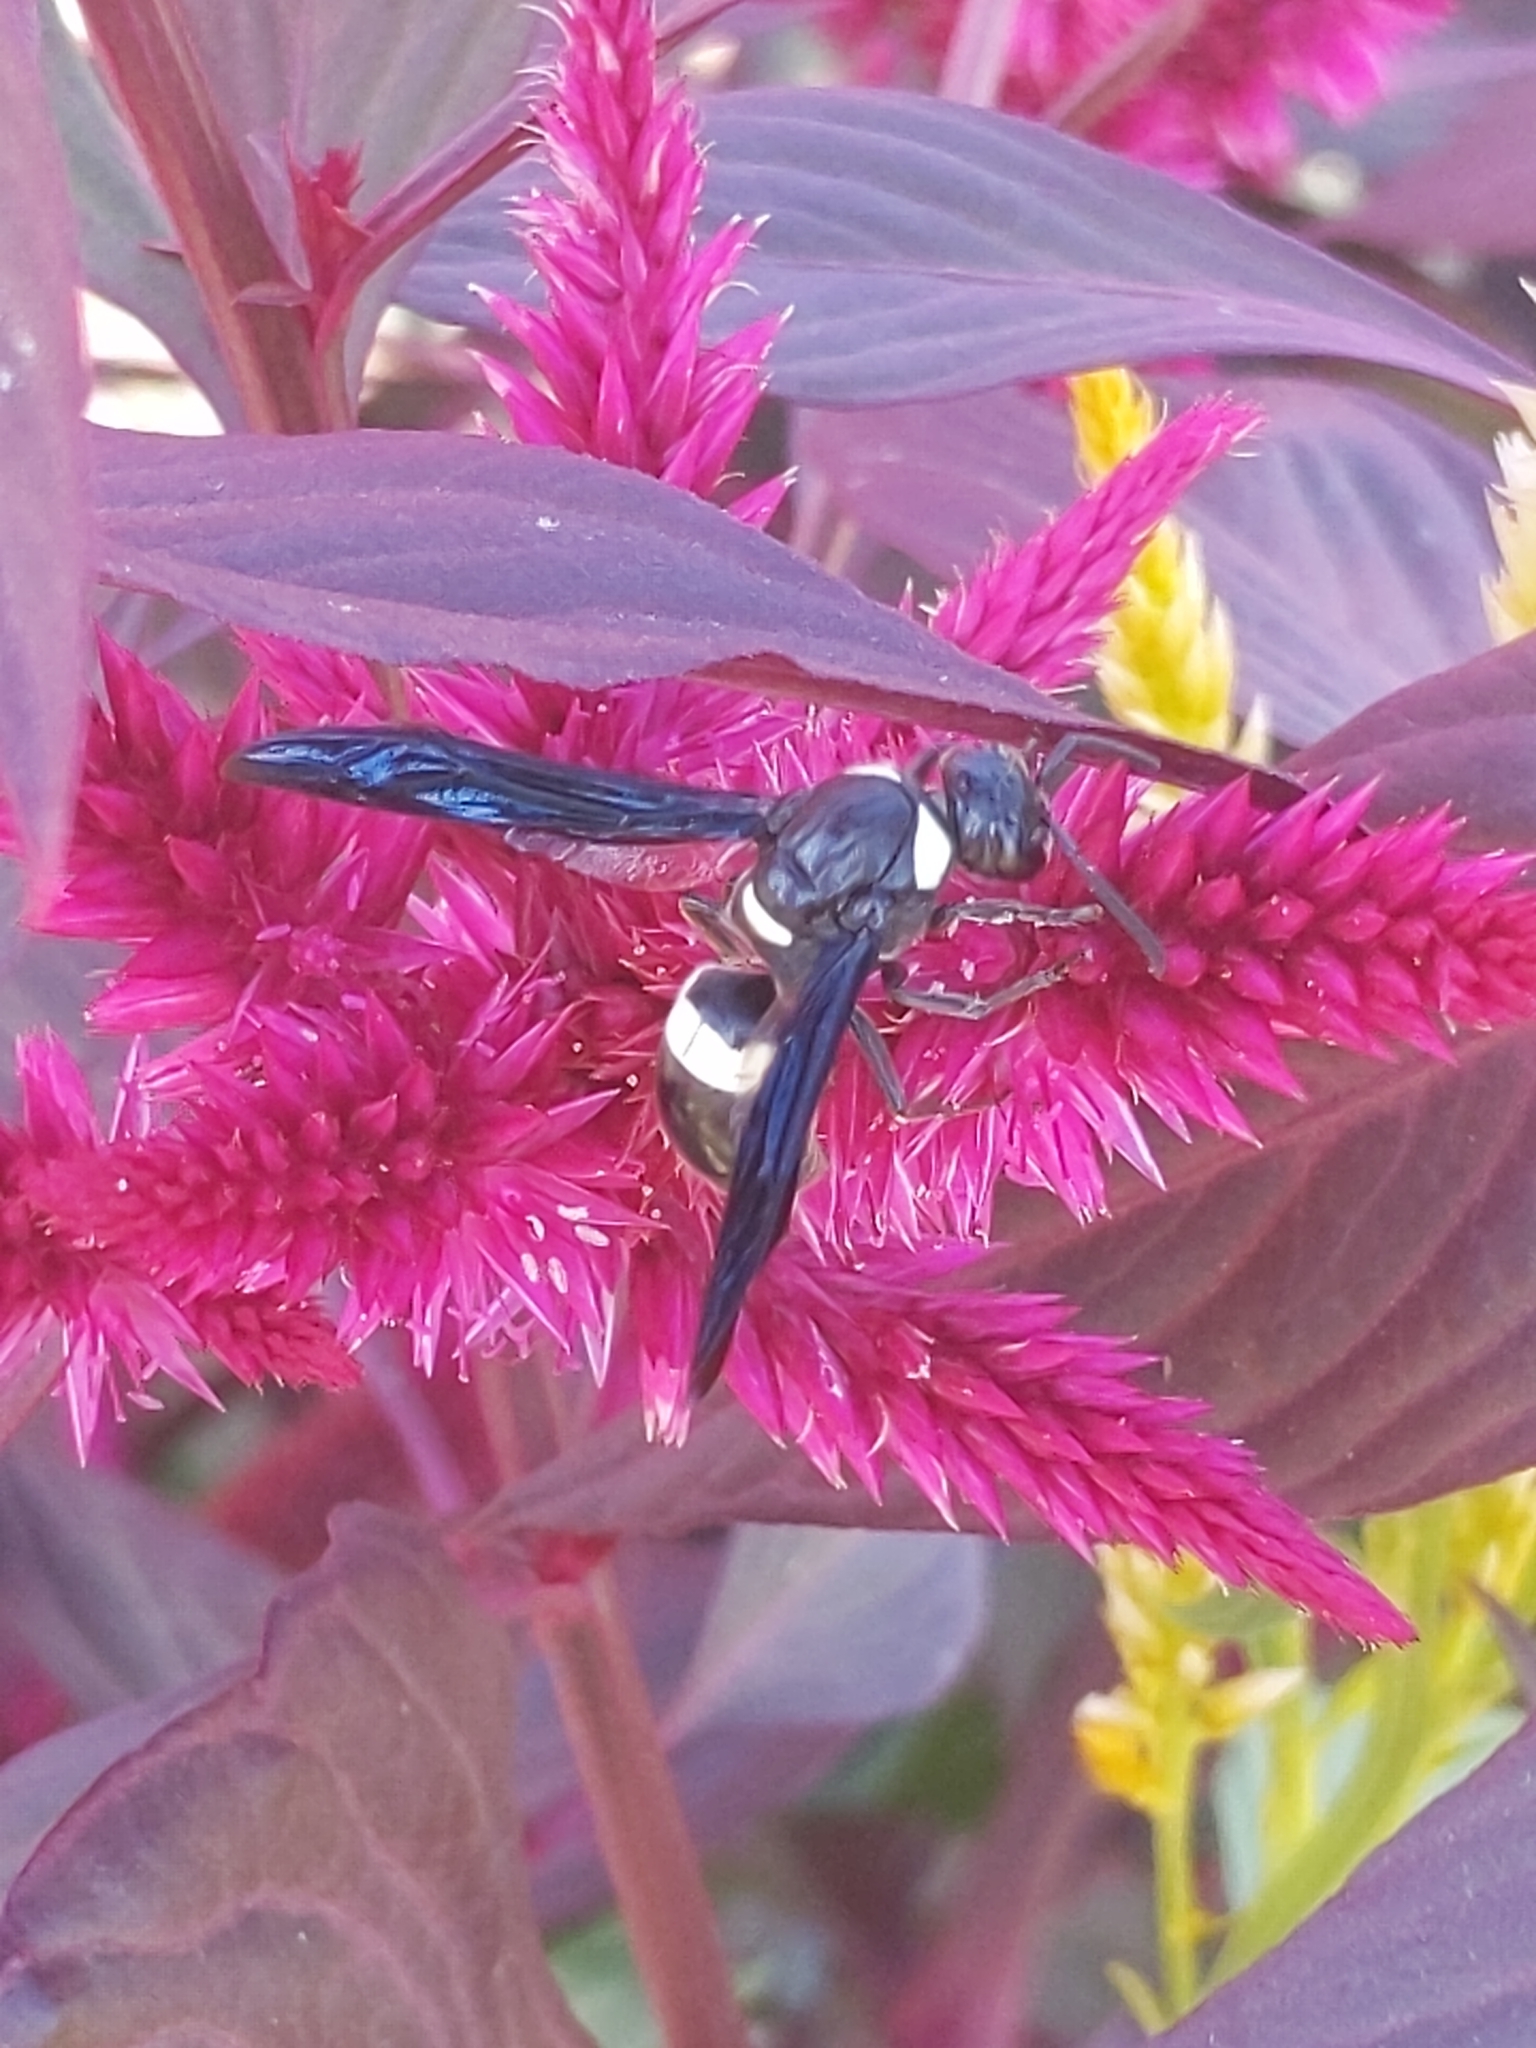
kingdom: Animalia
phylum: Arthropoda
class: Insecta
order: Hymenoptera
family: Eumenidae
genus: Monobia
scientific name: Monobia quadridens
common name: Four-toothed mason wasp
